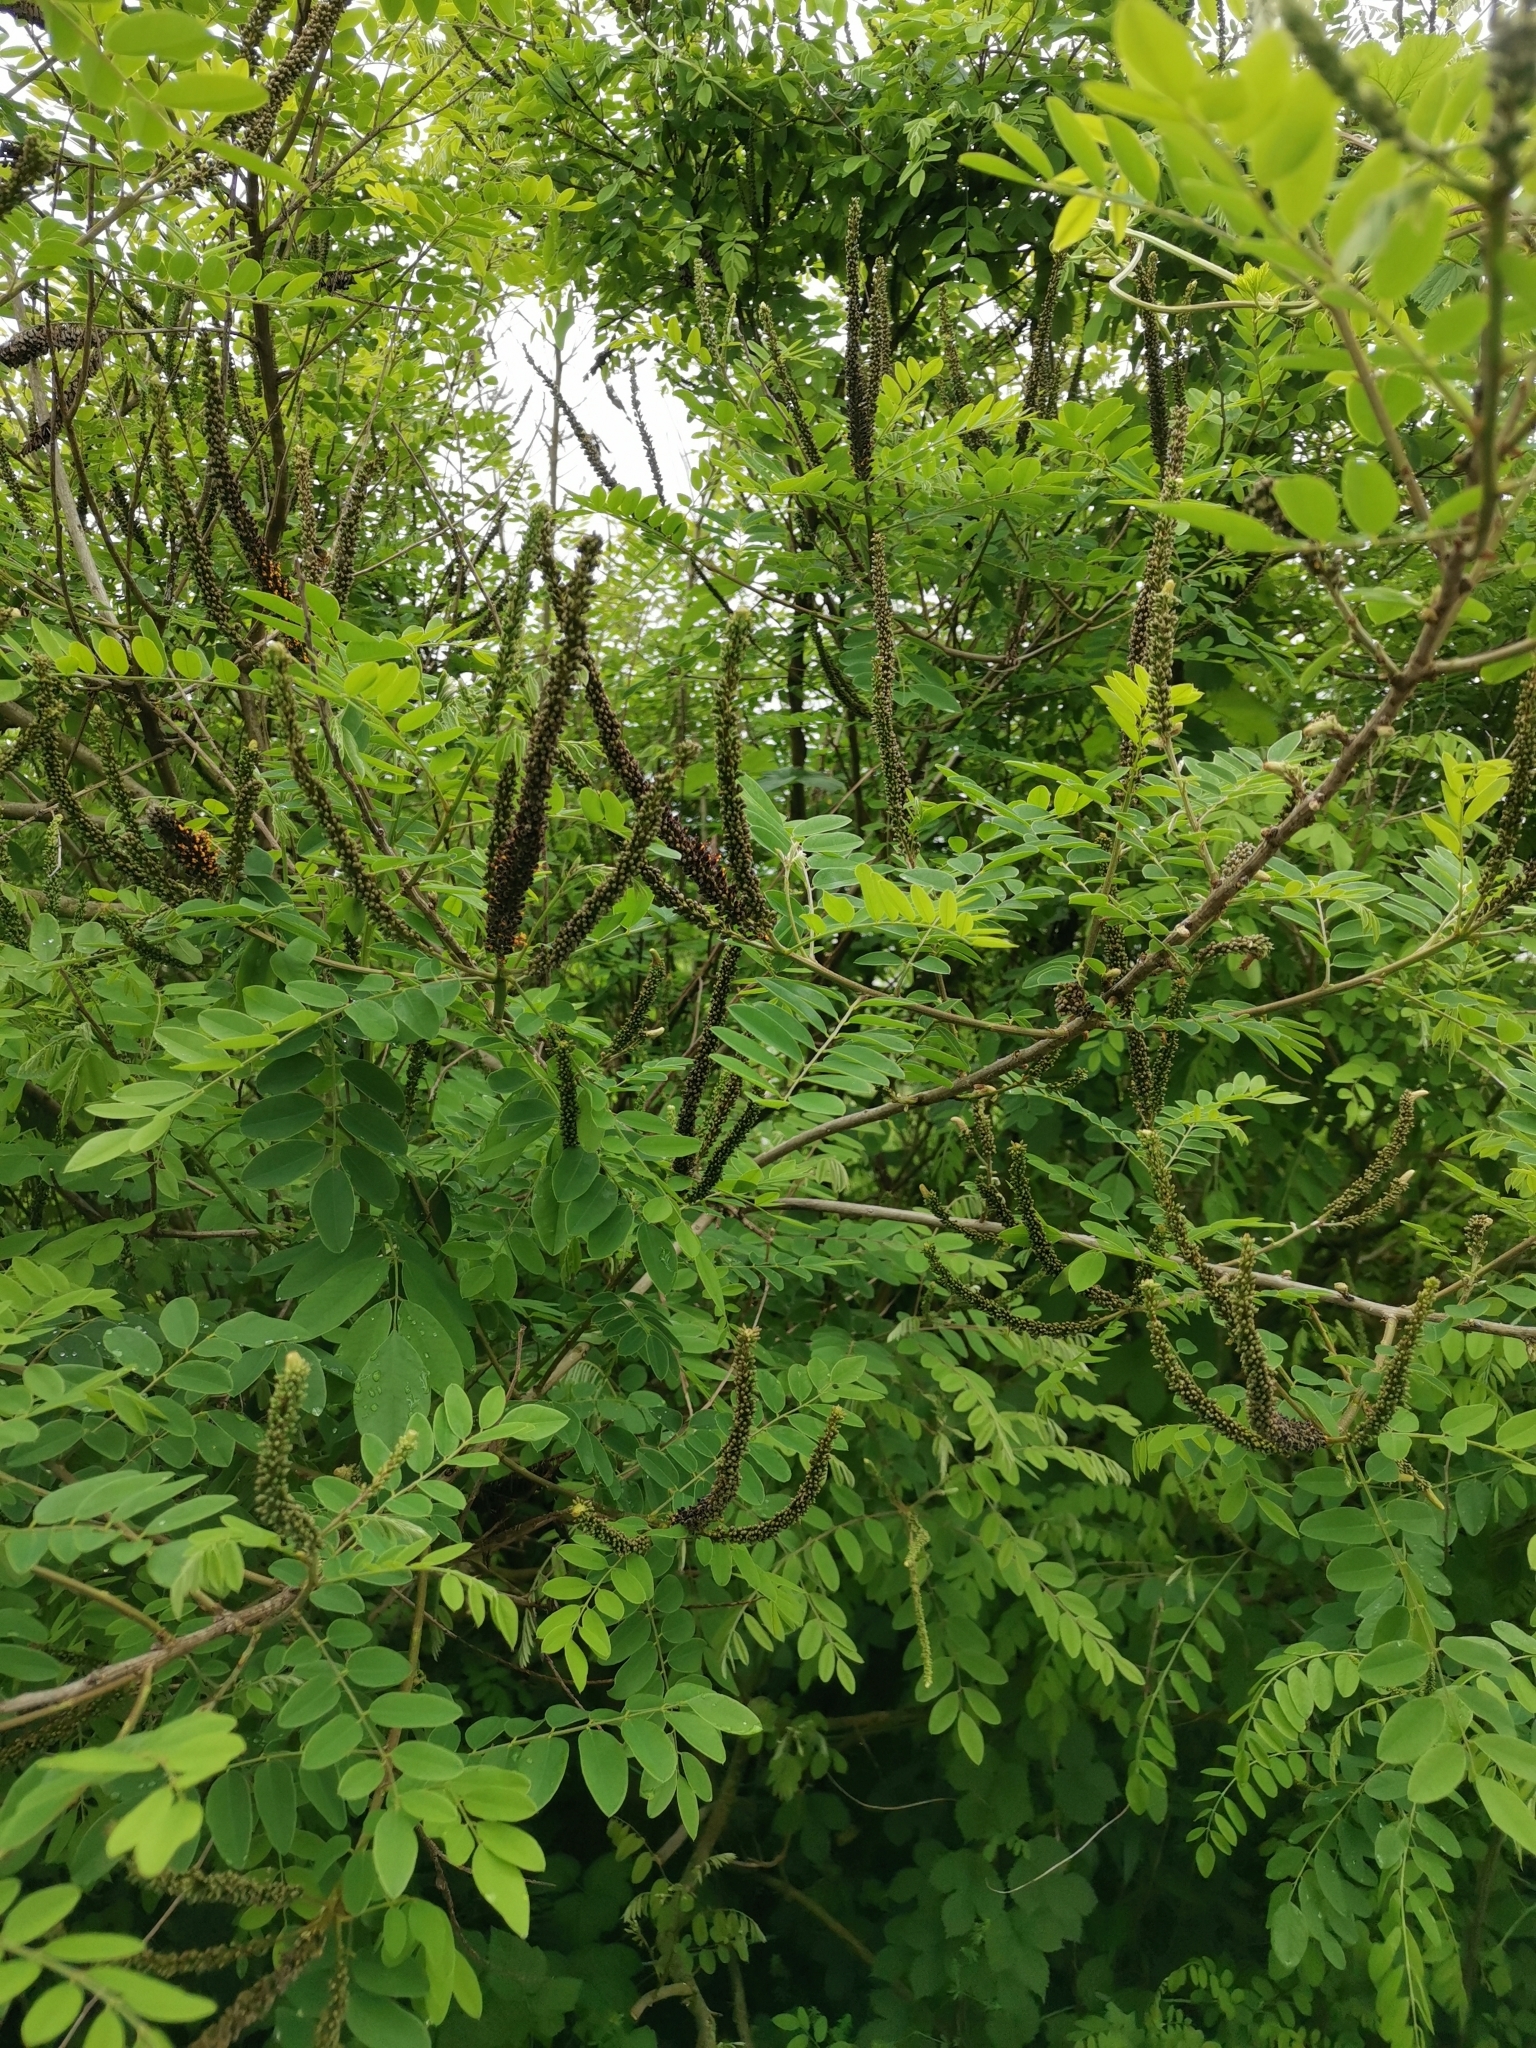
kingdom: Plantae
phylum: Tracheophyta
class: Magnoliopsida
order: Fabales
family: Fabaceae
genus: Amorpha
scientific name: Amorpha fruticosa
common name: False indigo
